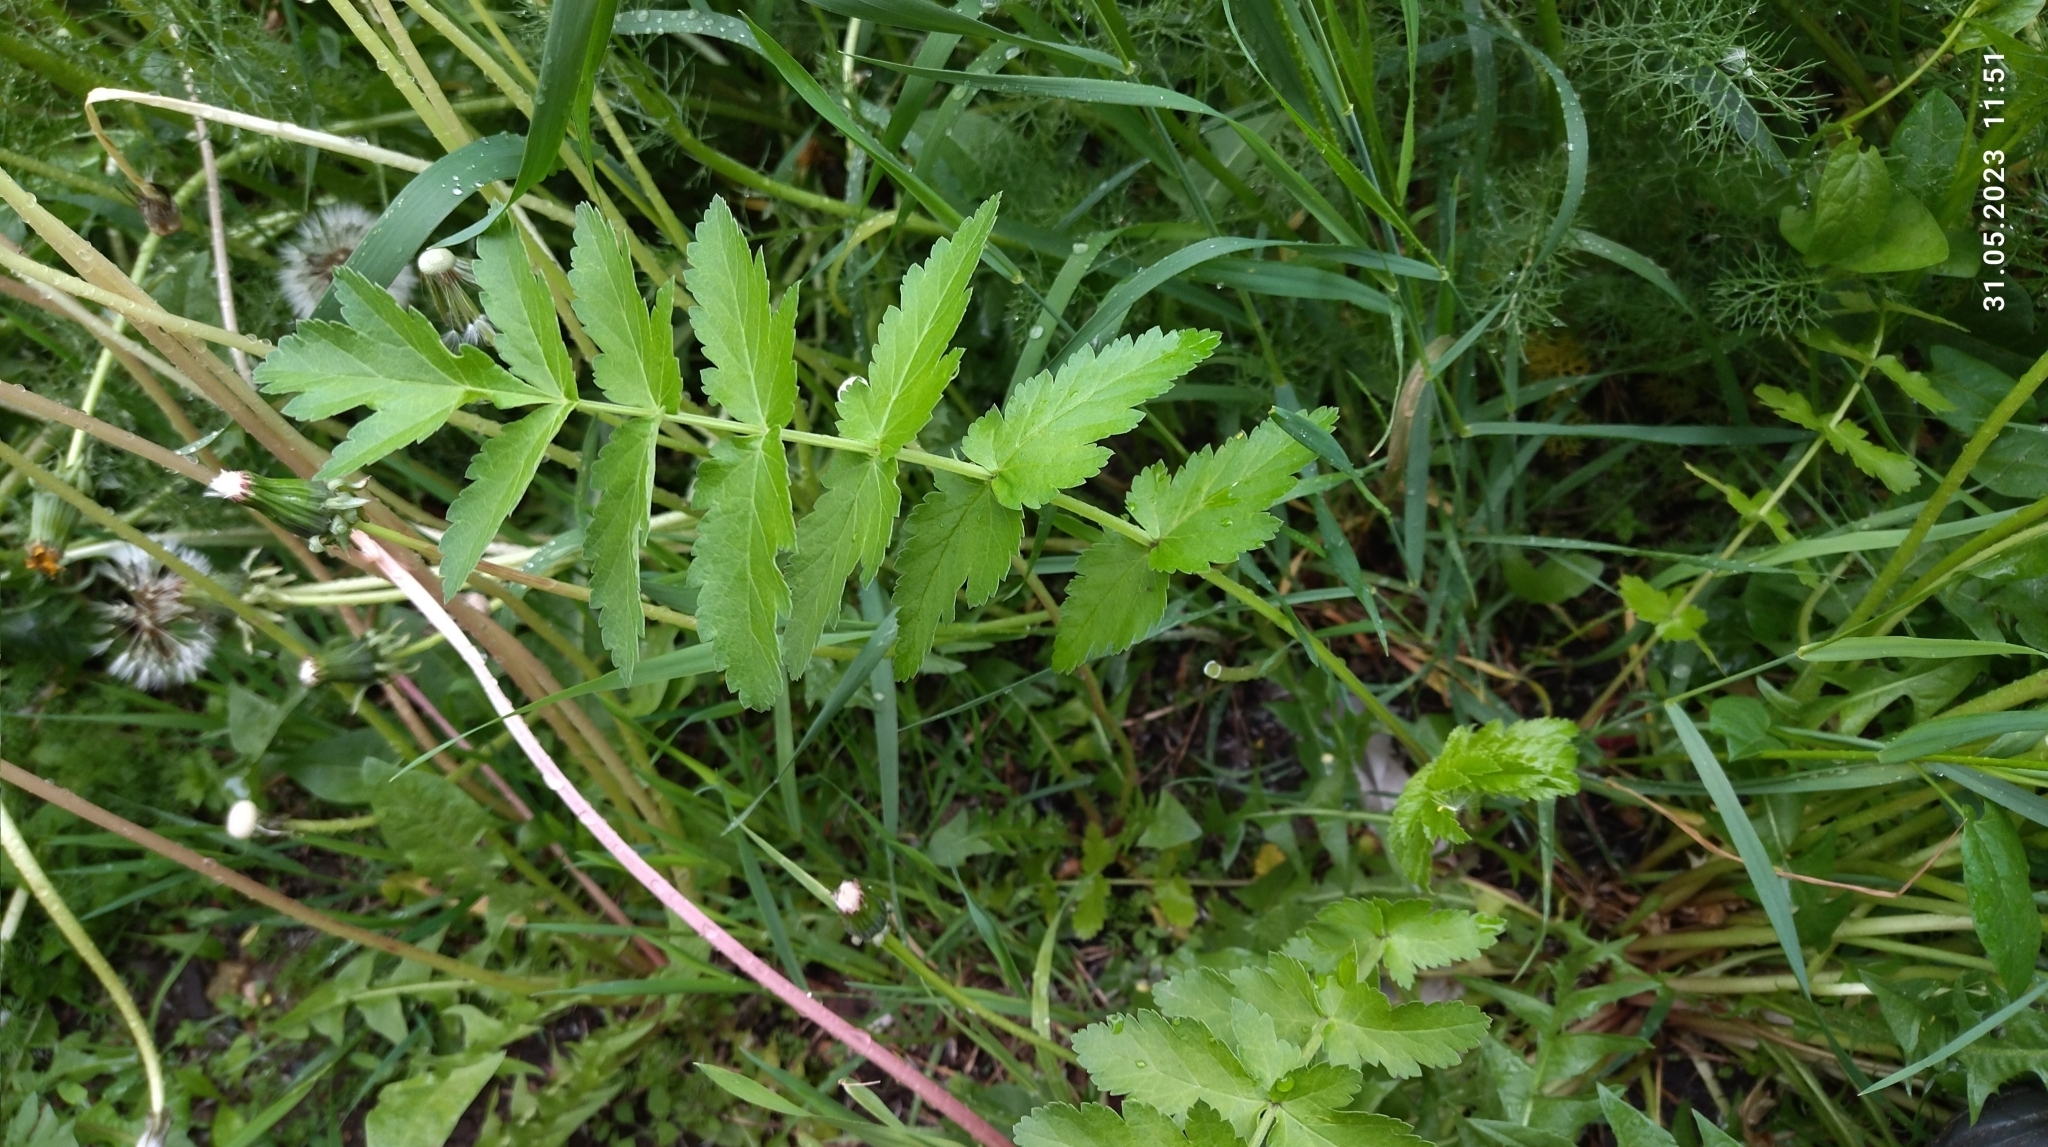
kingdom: Plantae
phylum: Tracheophyta
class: Magnoliopsida
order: Apiales
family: Apiaceae
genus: Pastinaca
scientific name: Pastinaca sativa
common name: Wild parsnip
